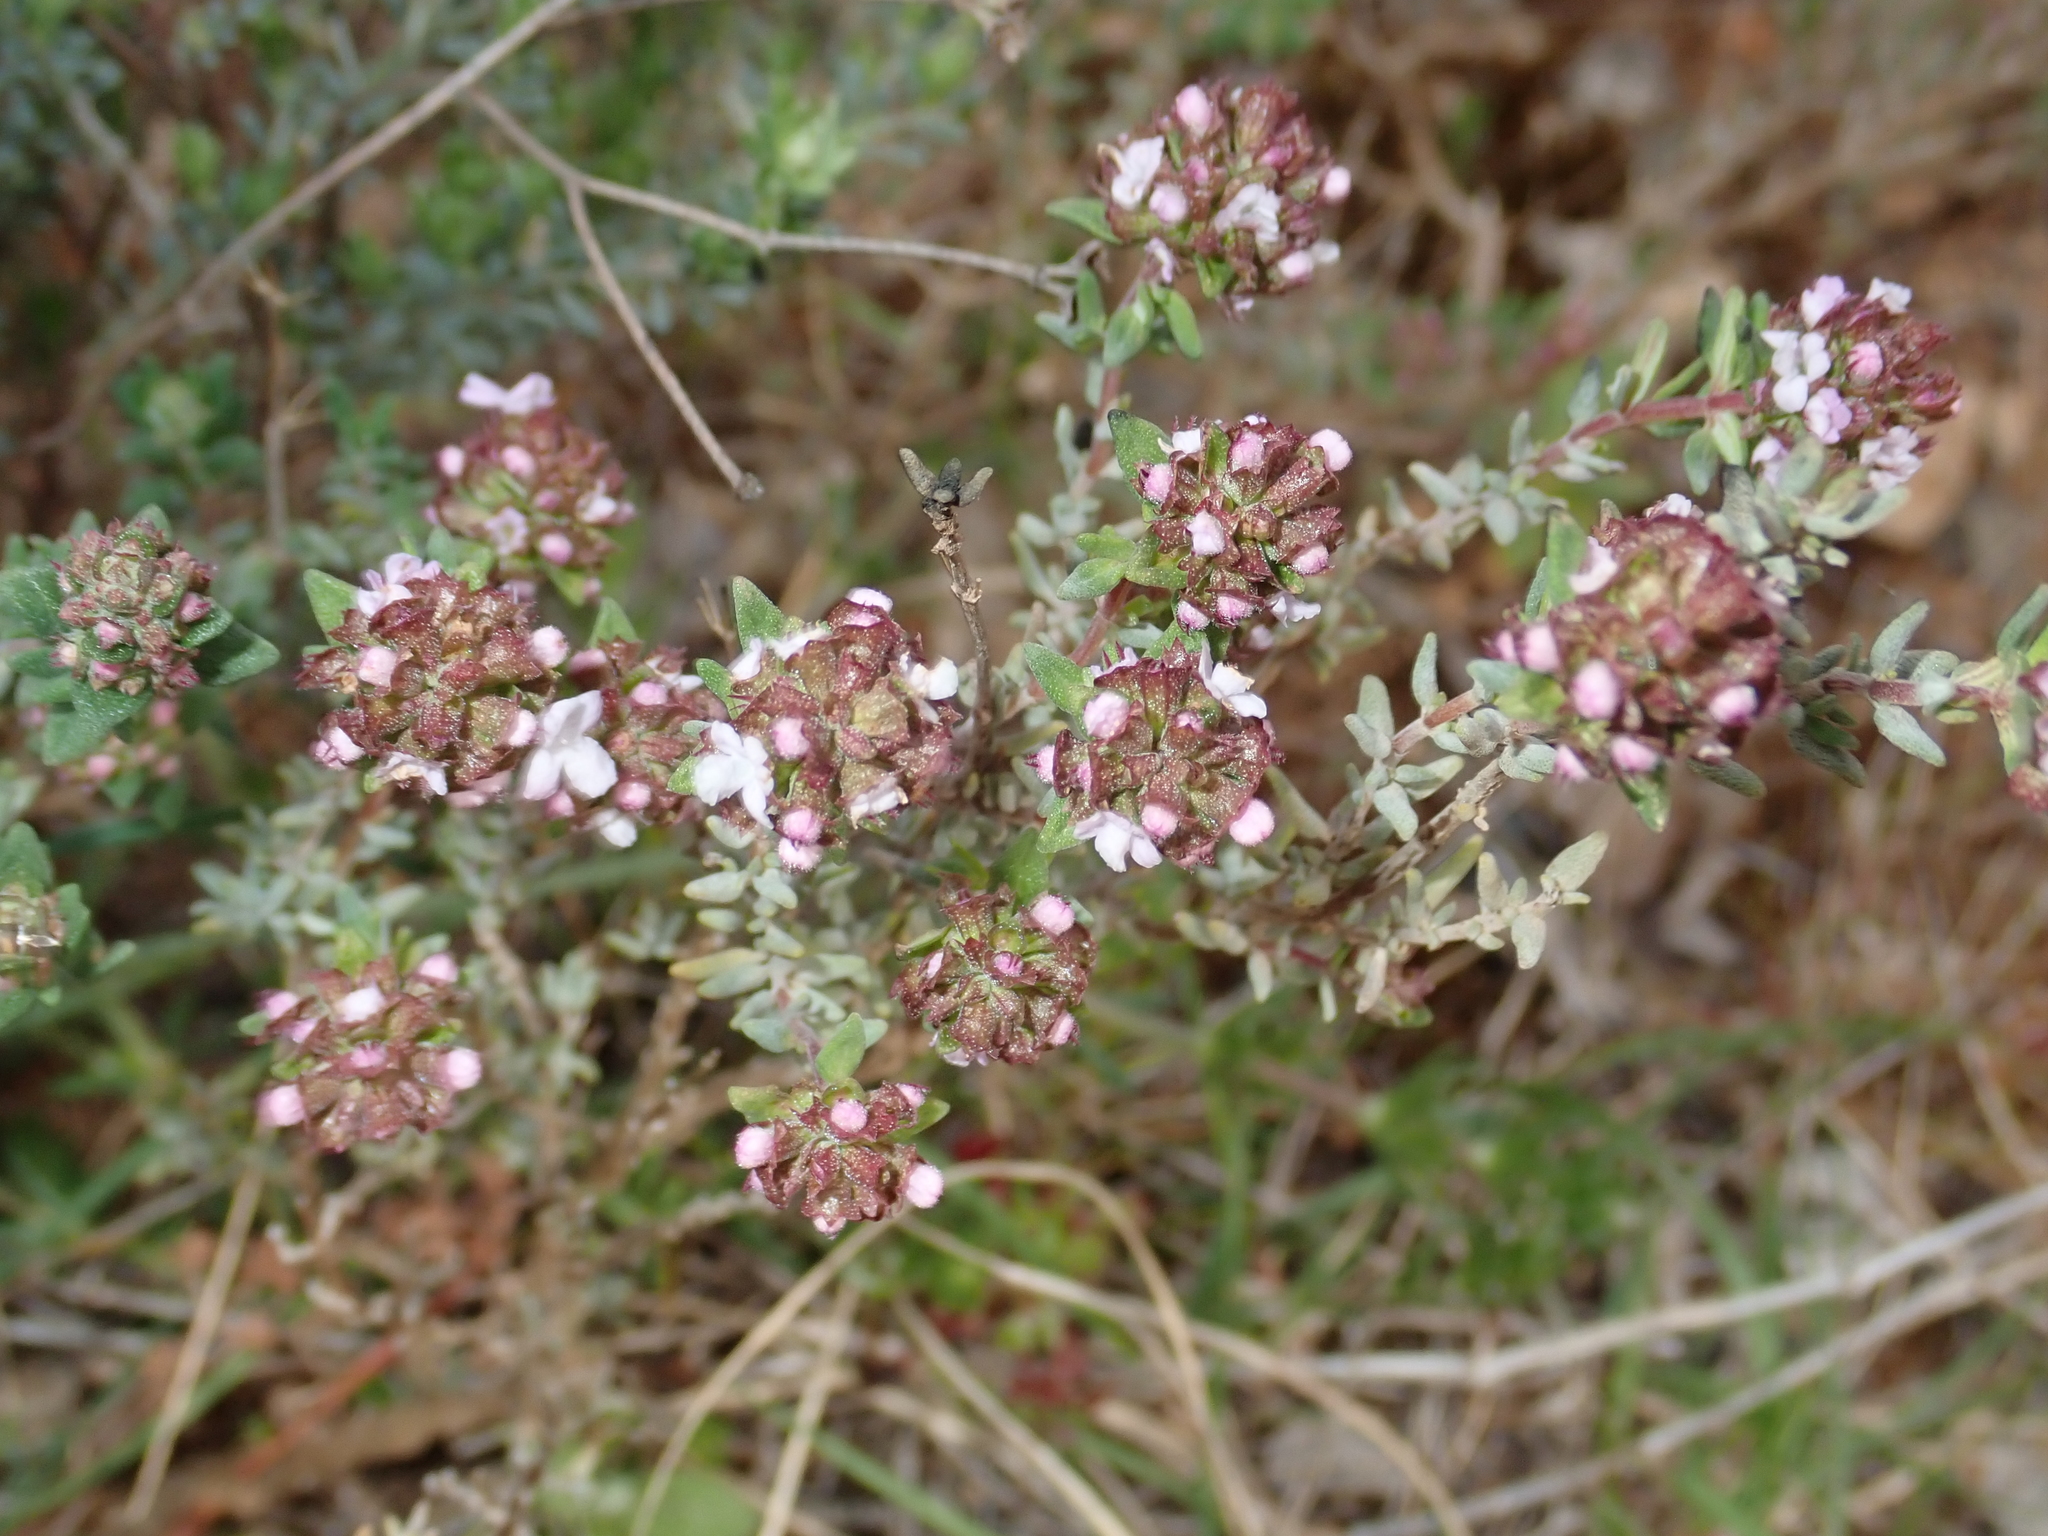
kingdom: Plantae
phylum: Tracheophyta
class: Magnoliopsida
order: Lamiales
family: Lamiaceae
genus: Thymus
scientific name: Thymus vulgaris
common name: Garden thyme
